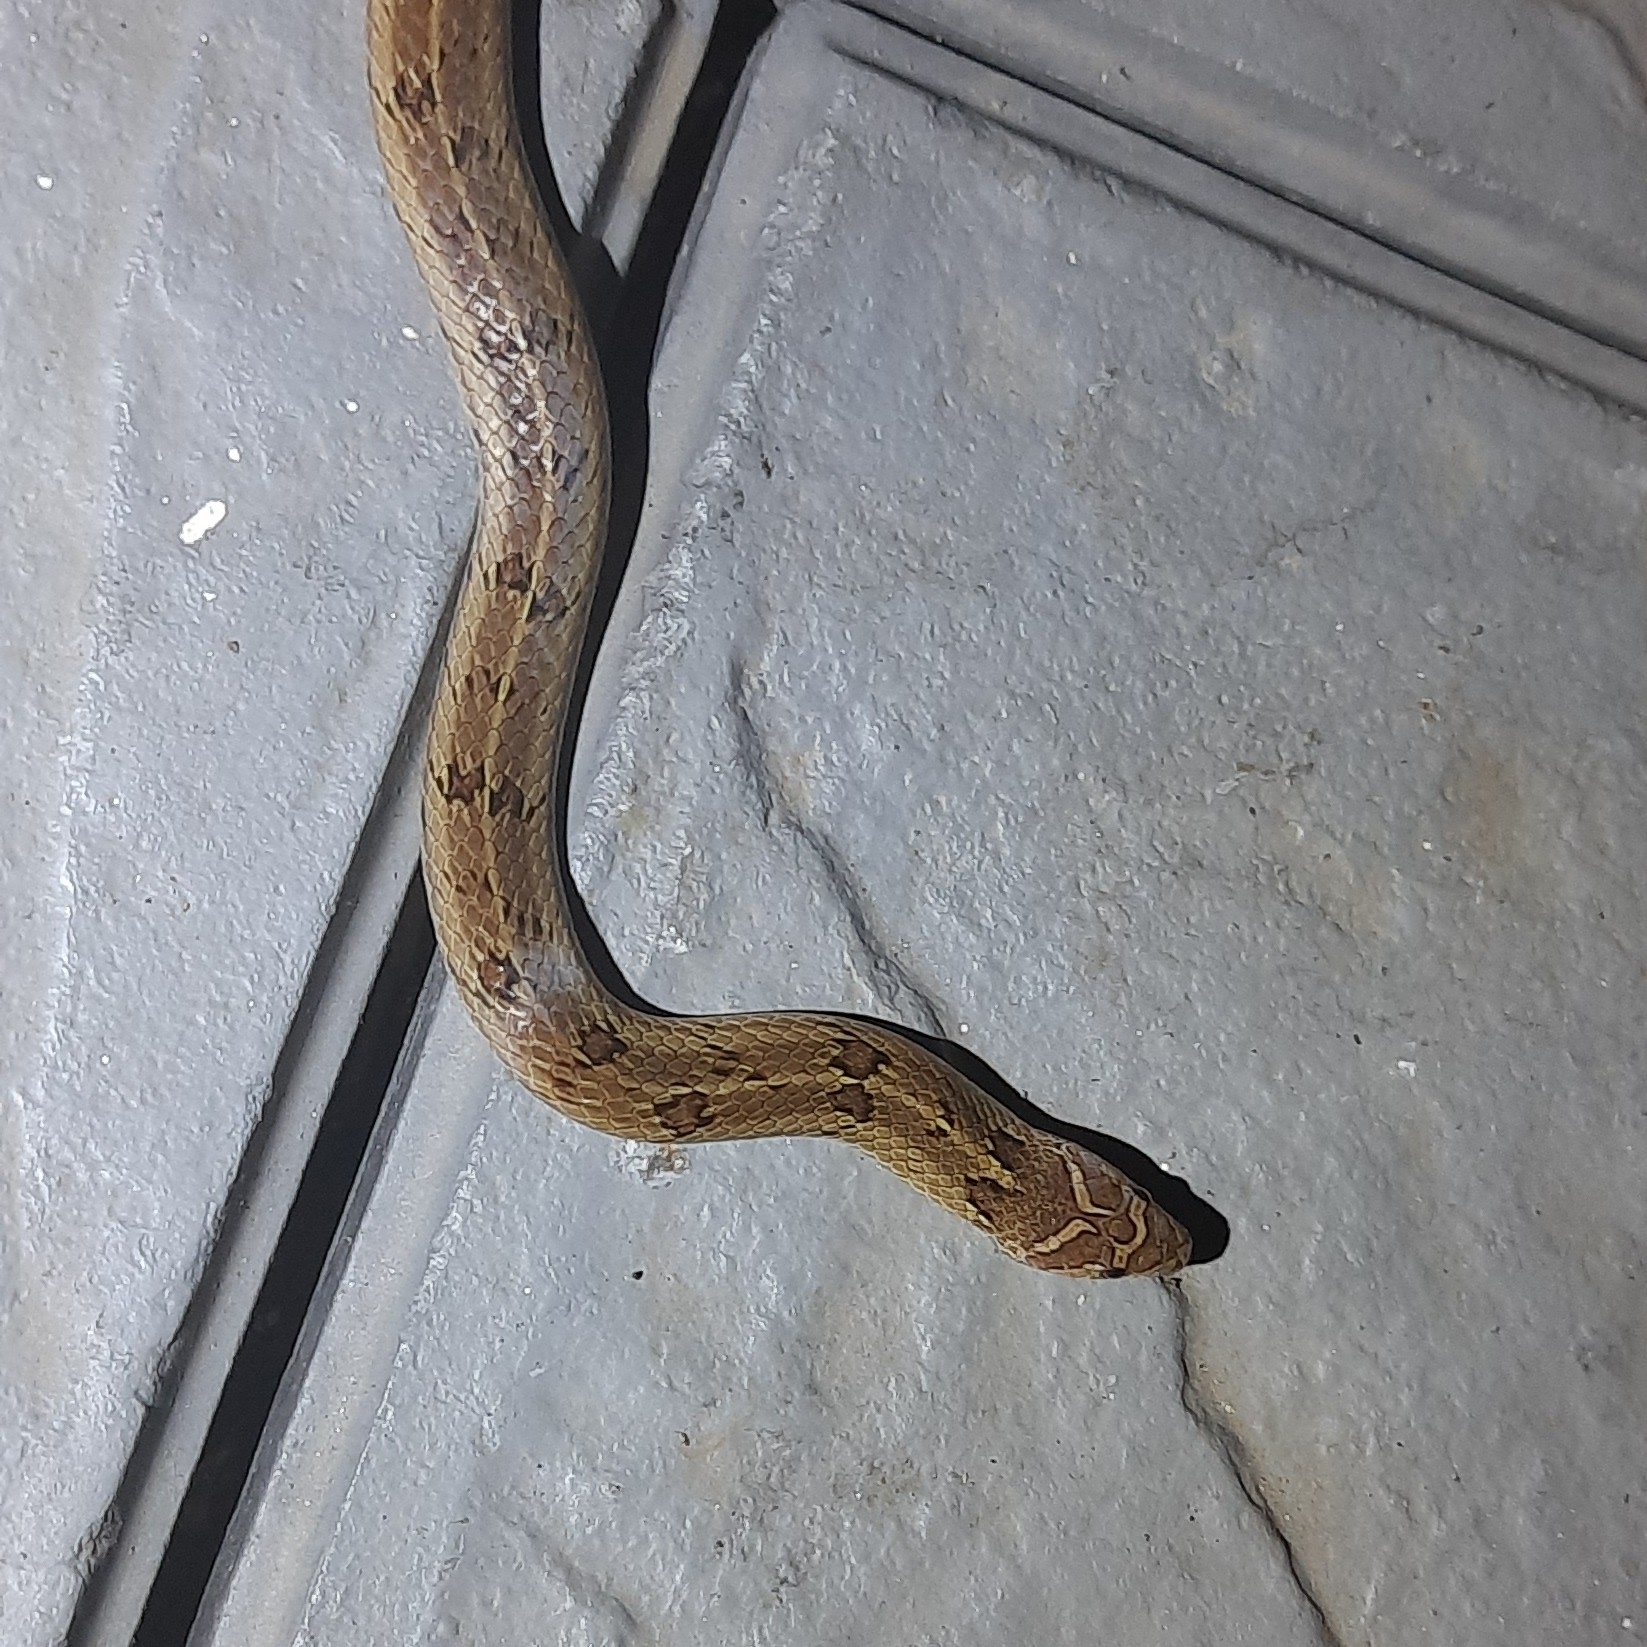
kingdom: Animalia
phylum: Chordata
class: Squamata
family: Colubridae
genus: Oligodon
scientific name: Oligodon taeniolatus
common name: Loos snake
